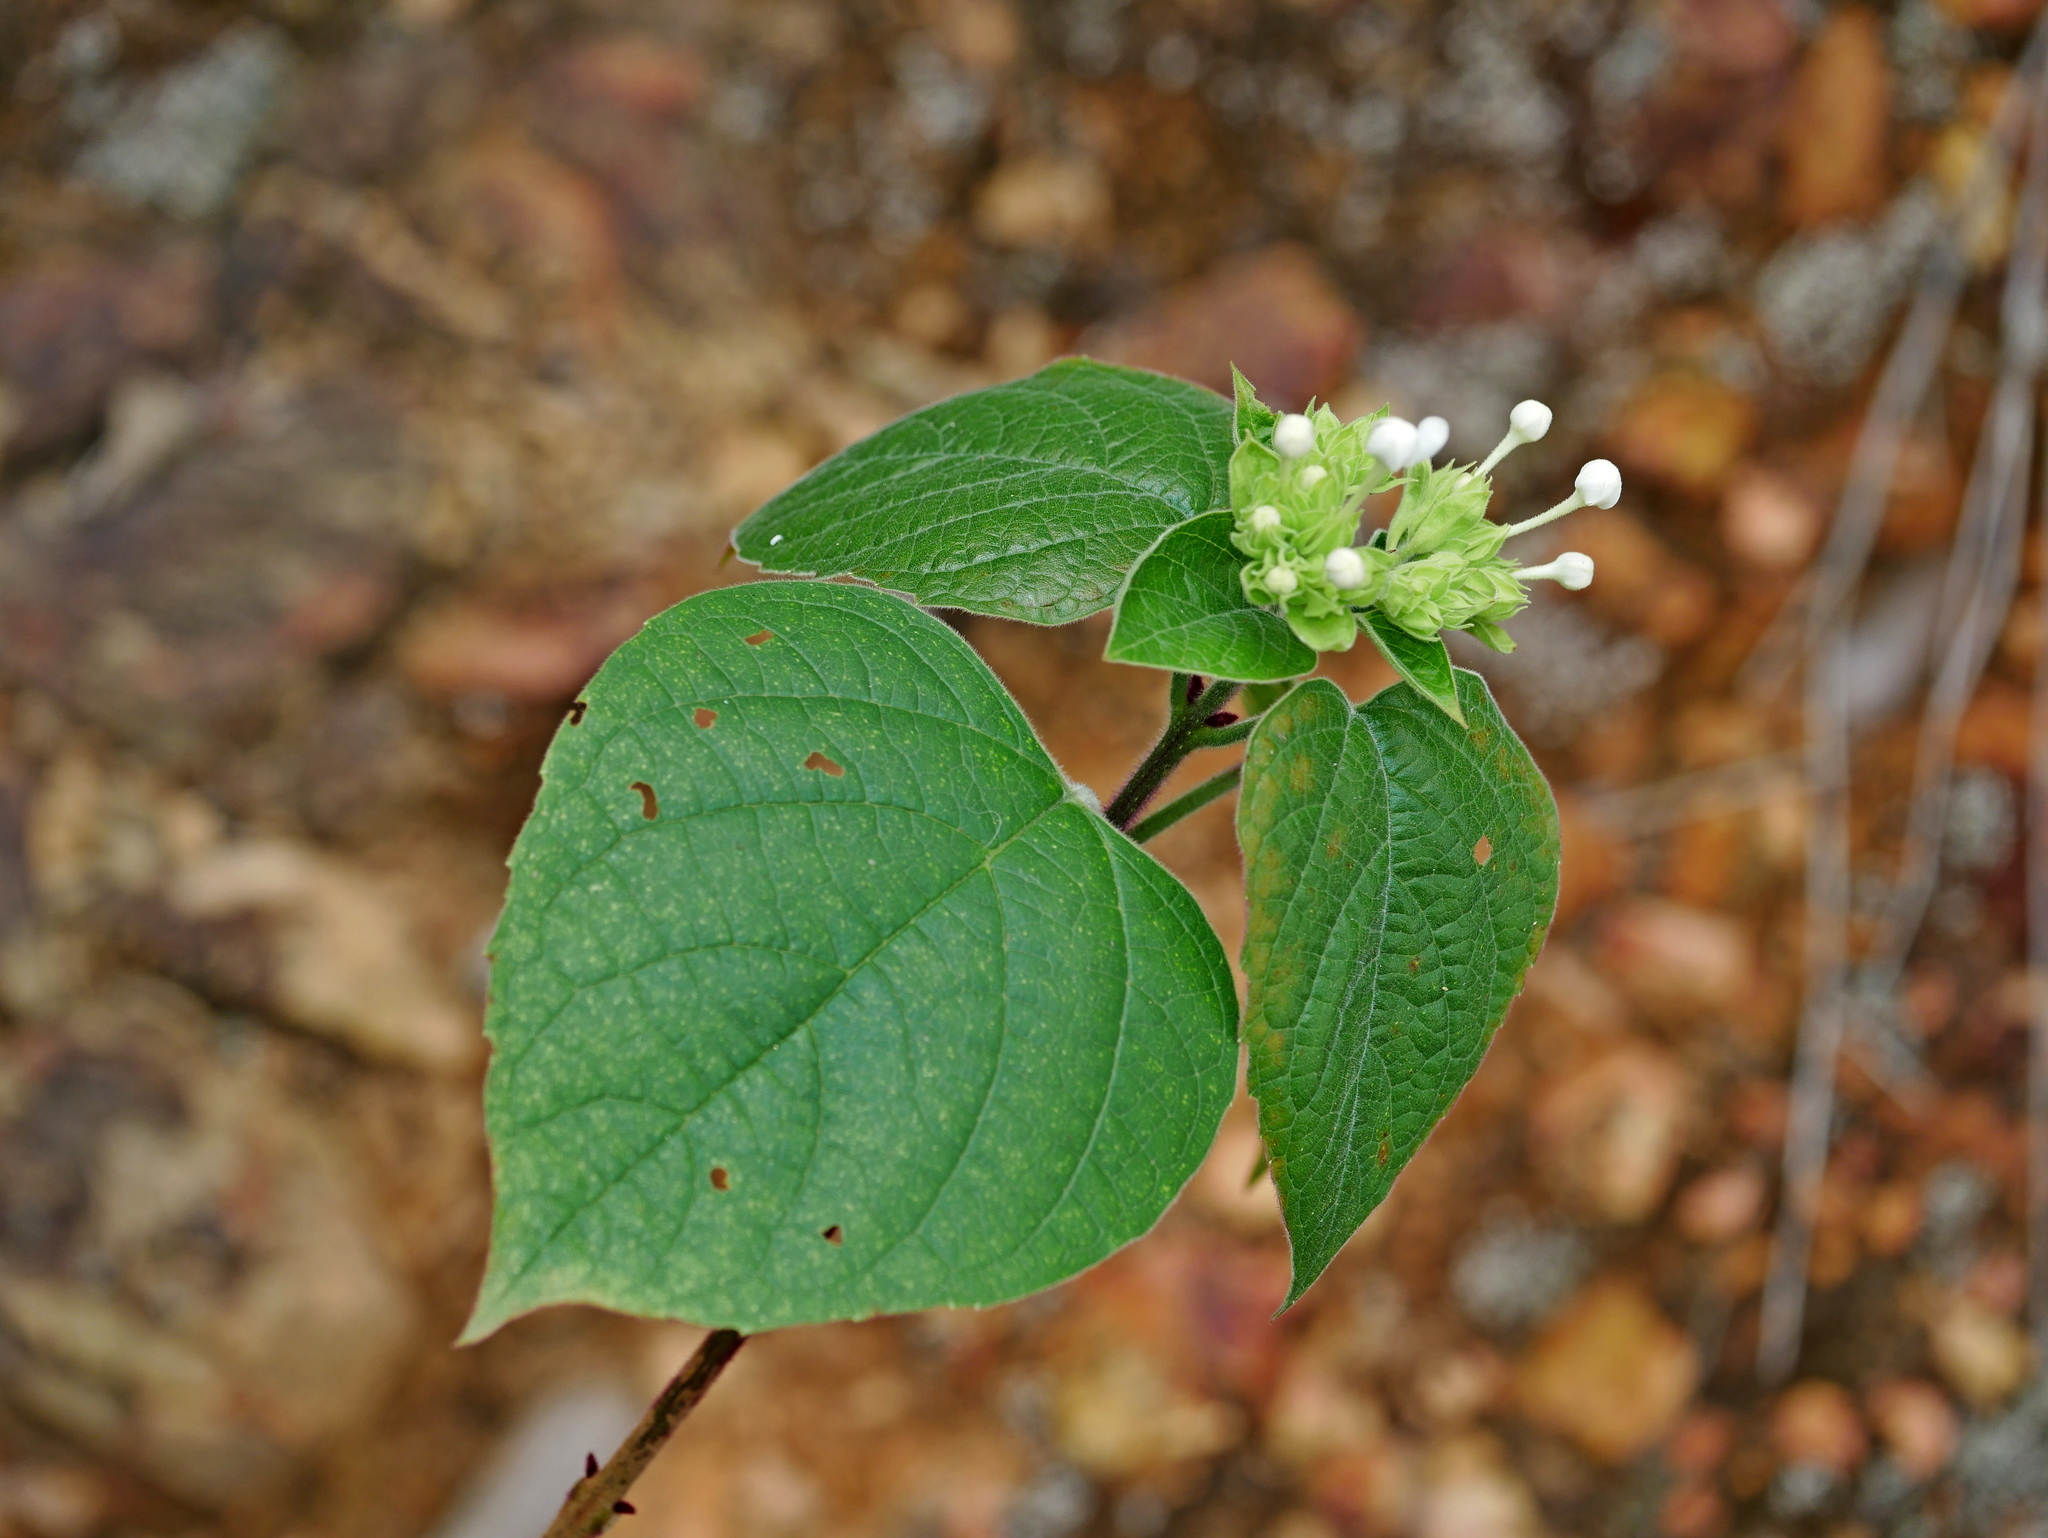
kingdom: Plantae
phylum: Tracheophyta
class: Magnoliopsida
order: Lamiales
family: Lamiaceae
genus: Clerodendrum
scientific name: Clerodendrum canescens
